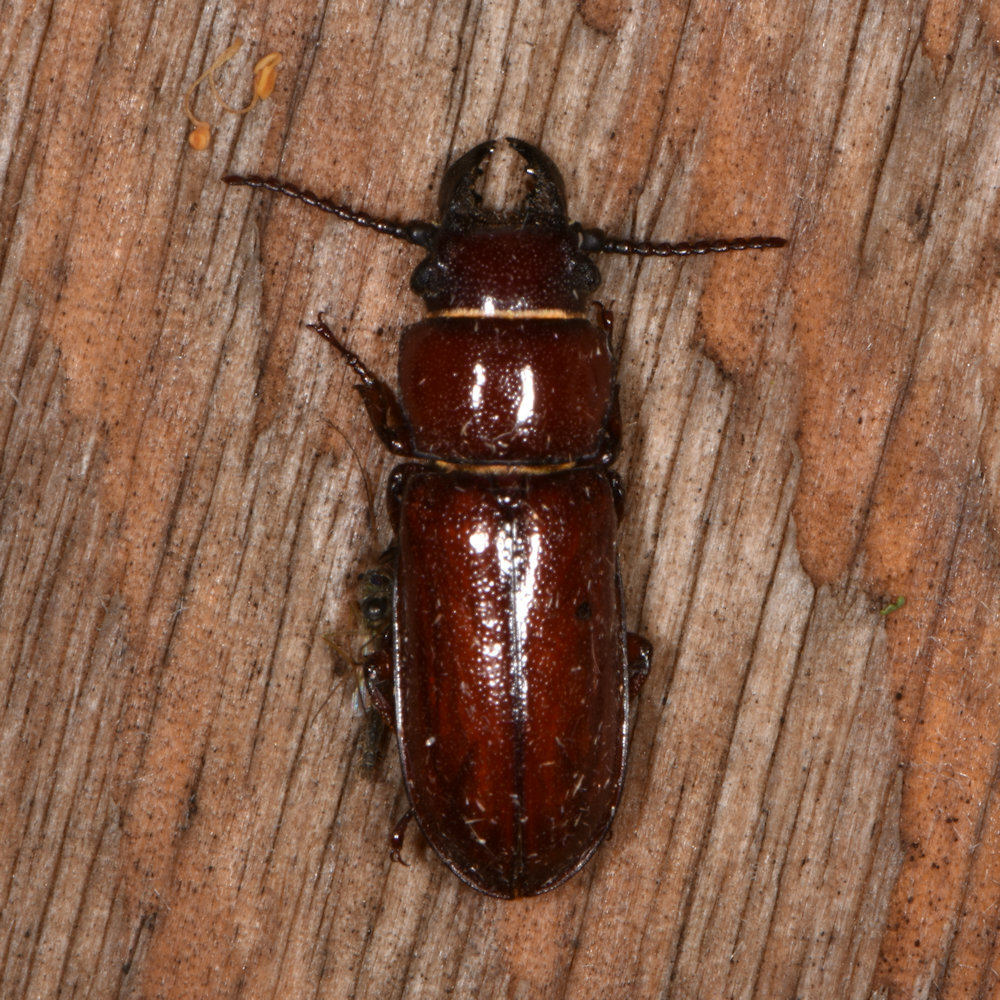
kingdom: Animalia
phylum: Arthropoda
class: Insecta
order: Coleoptera
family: Cerambycidae
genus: Neandra
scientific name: Neandra brunnea
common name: Pole borer
